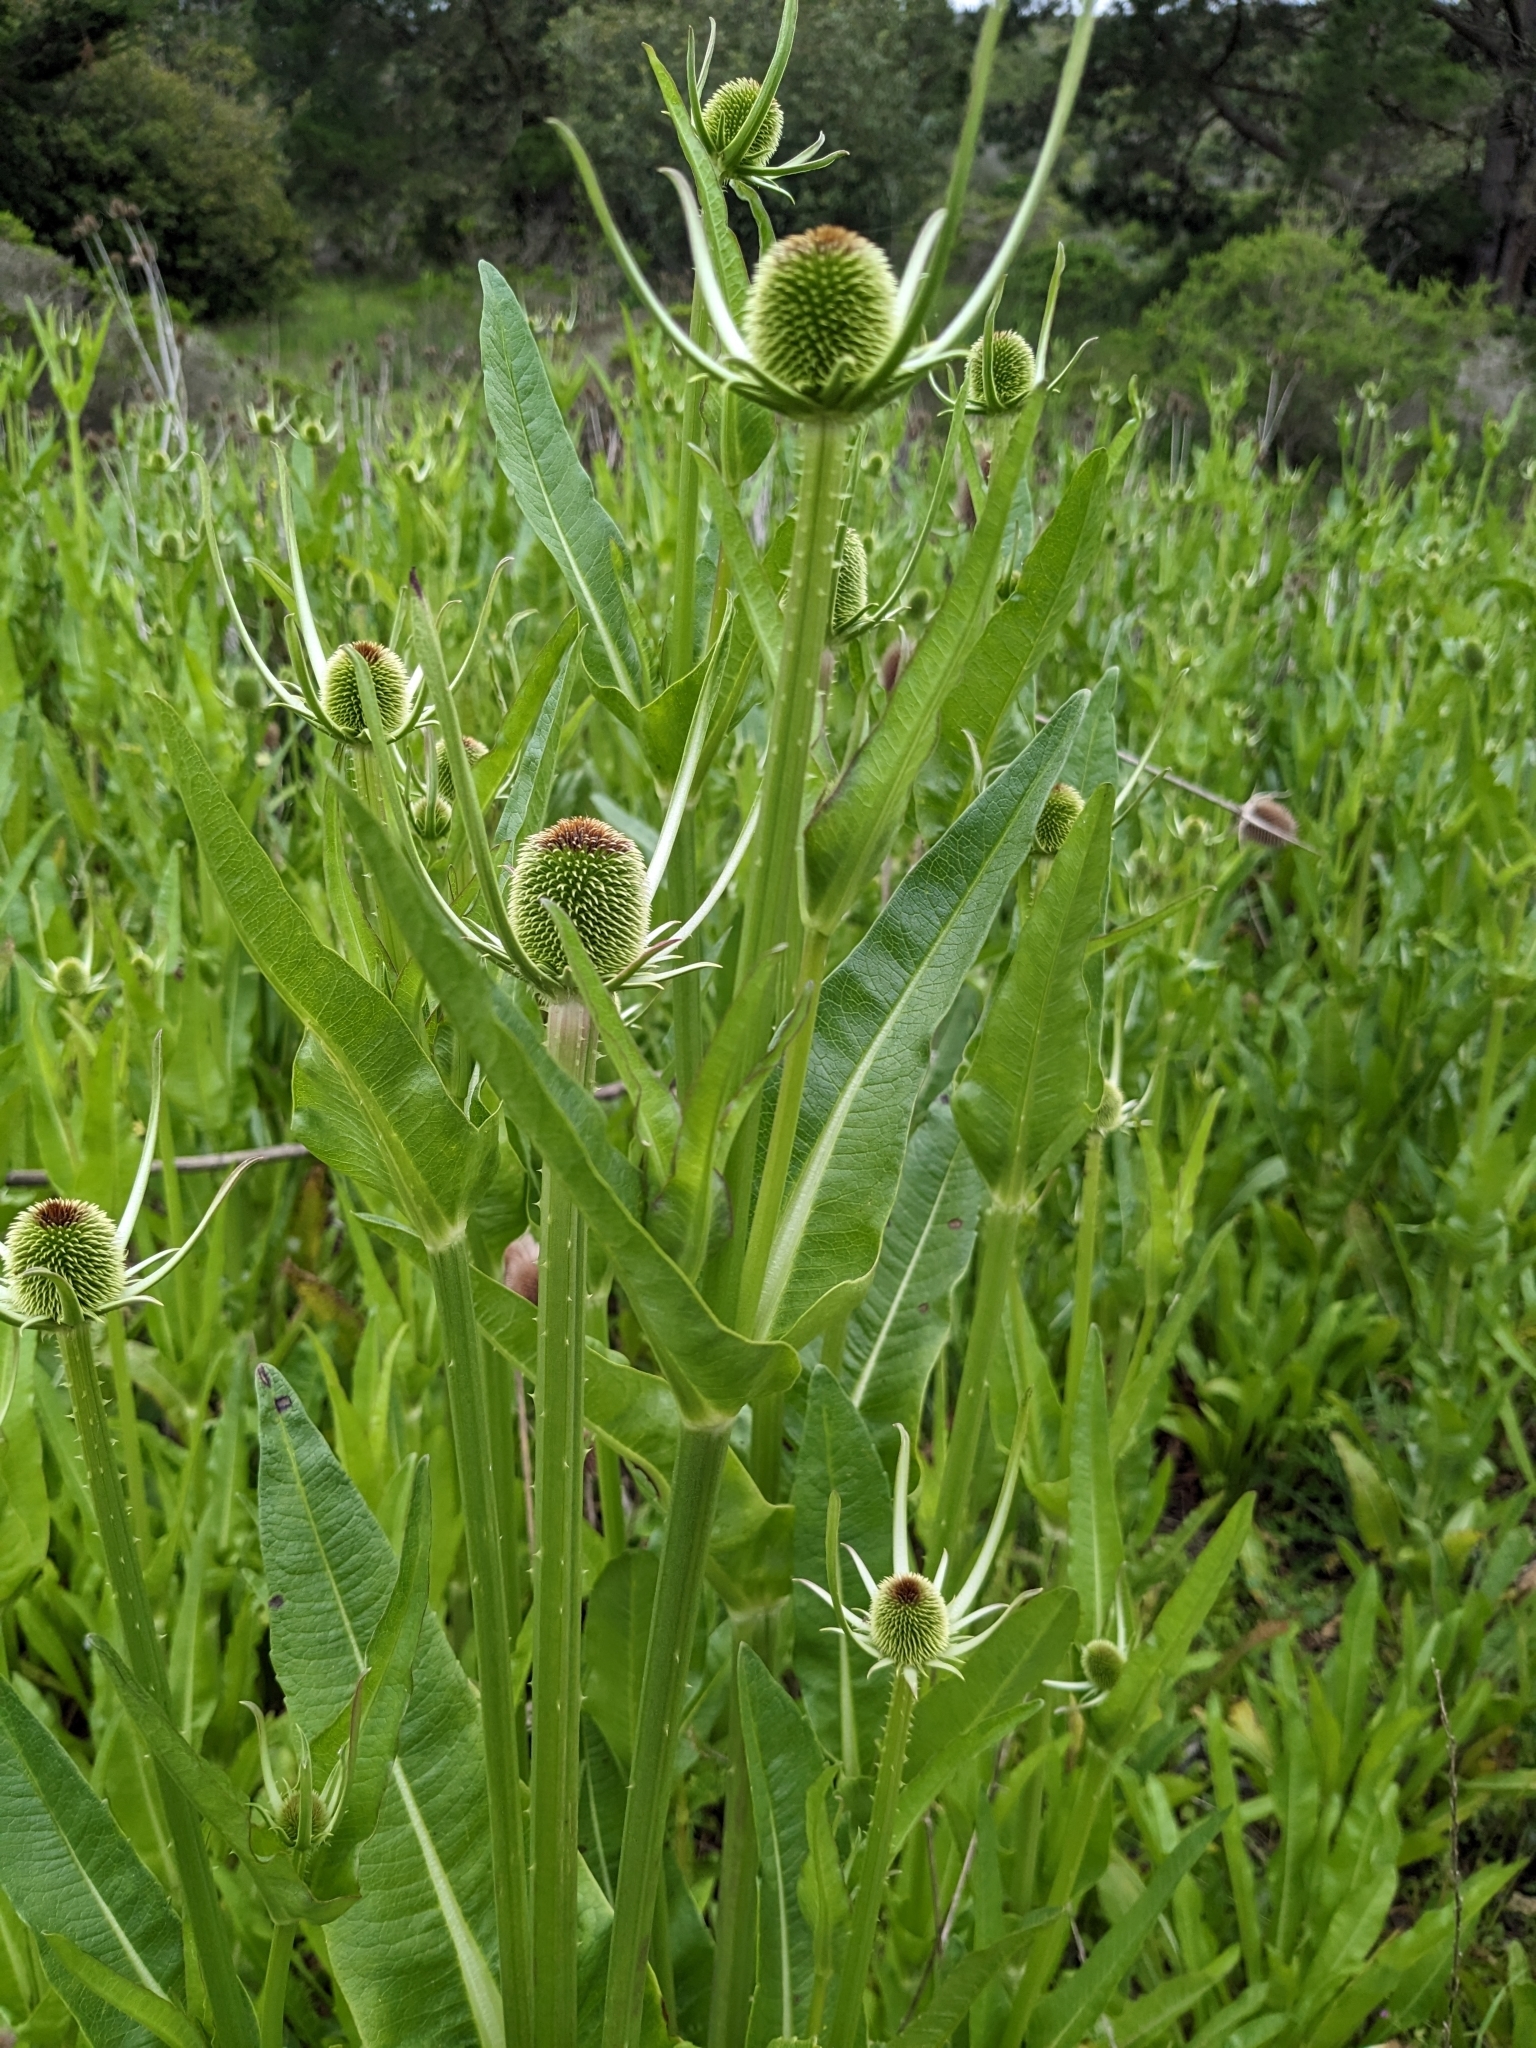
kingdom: Plantae
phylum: Tracheophyta
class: Magnoliopsida
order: Dipsacales
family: Caprifoliaceae
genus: Dipsacus
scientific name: Dipsacus sativus
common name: Fuller's teasel
